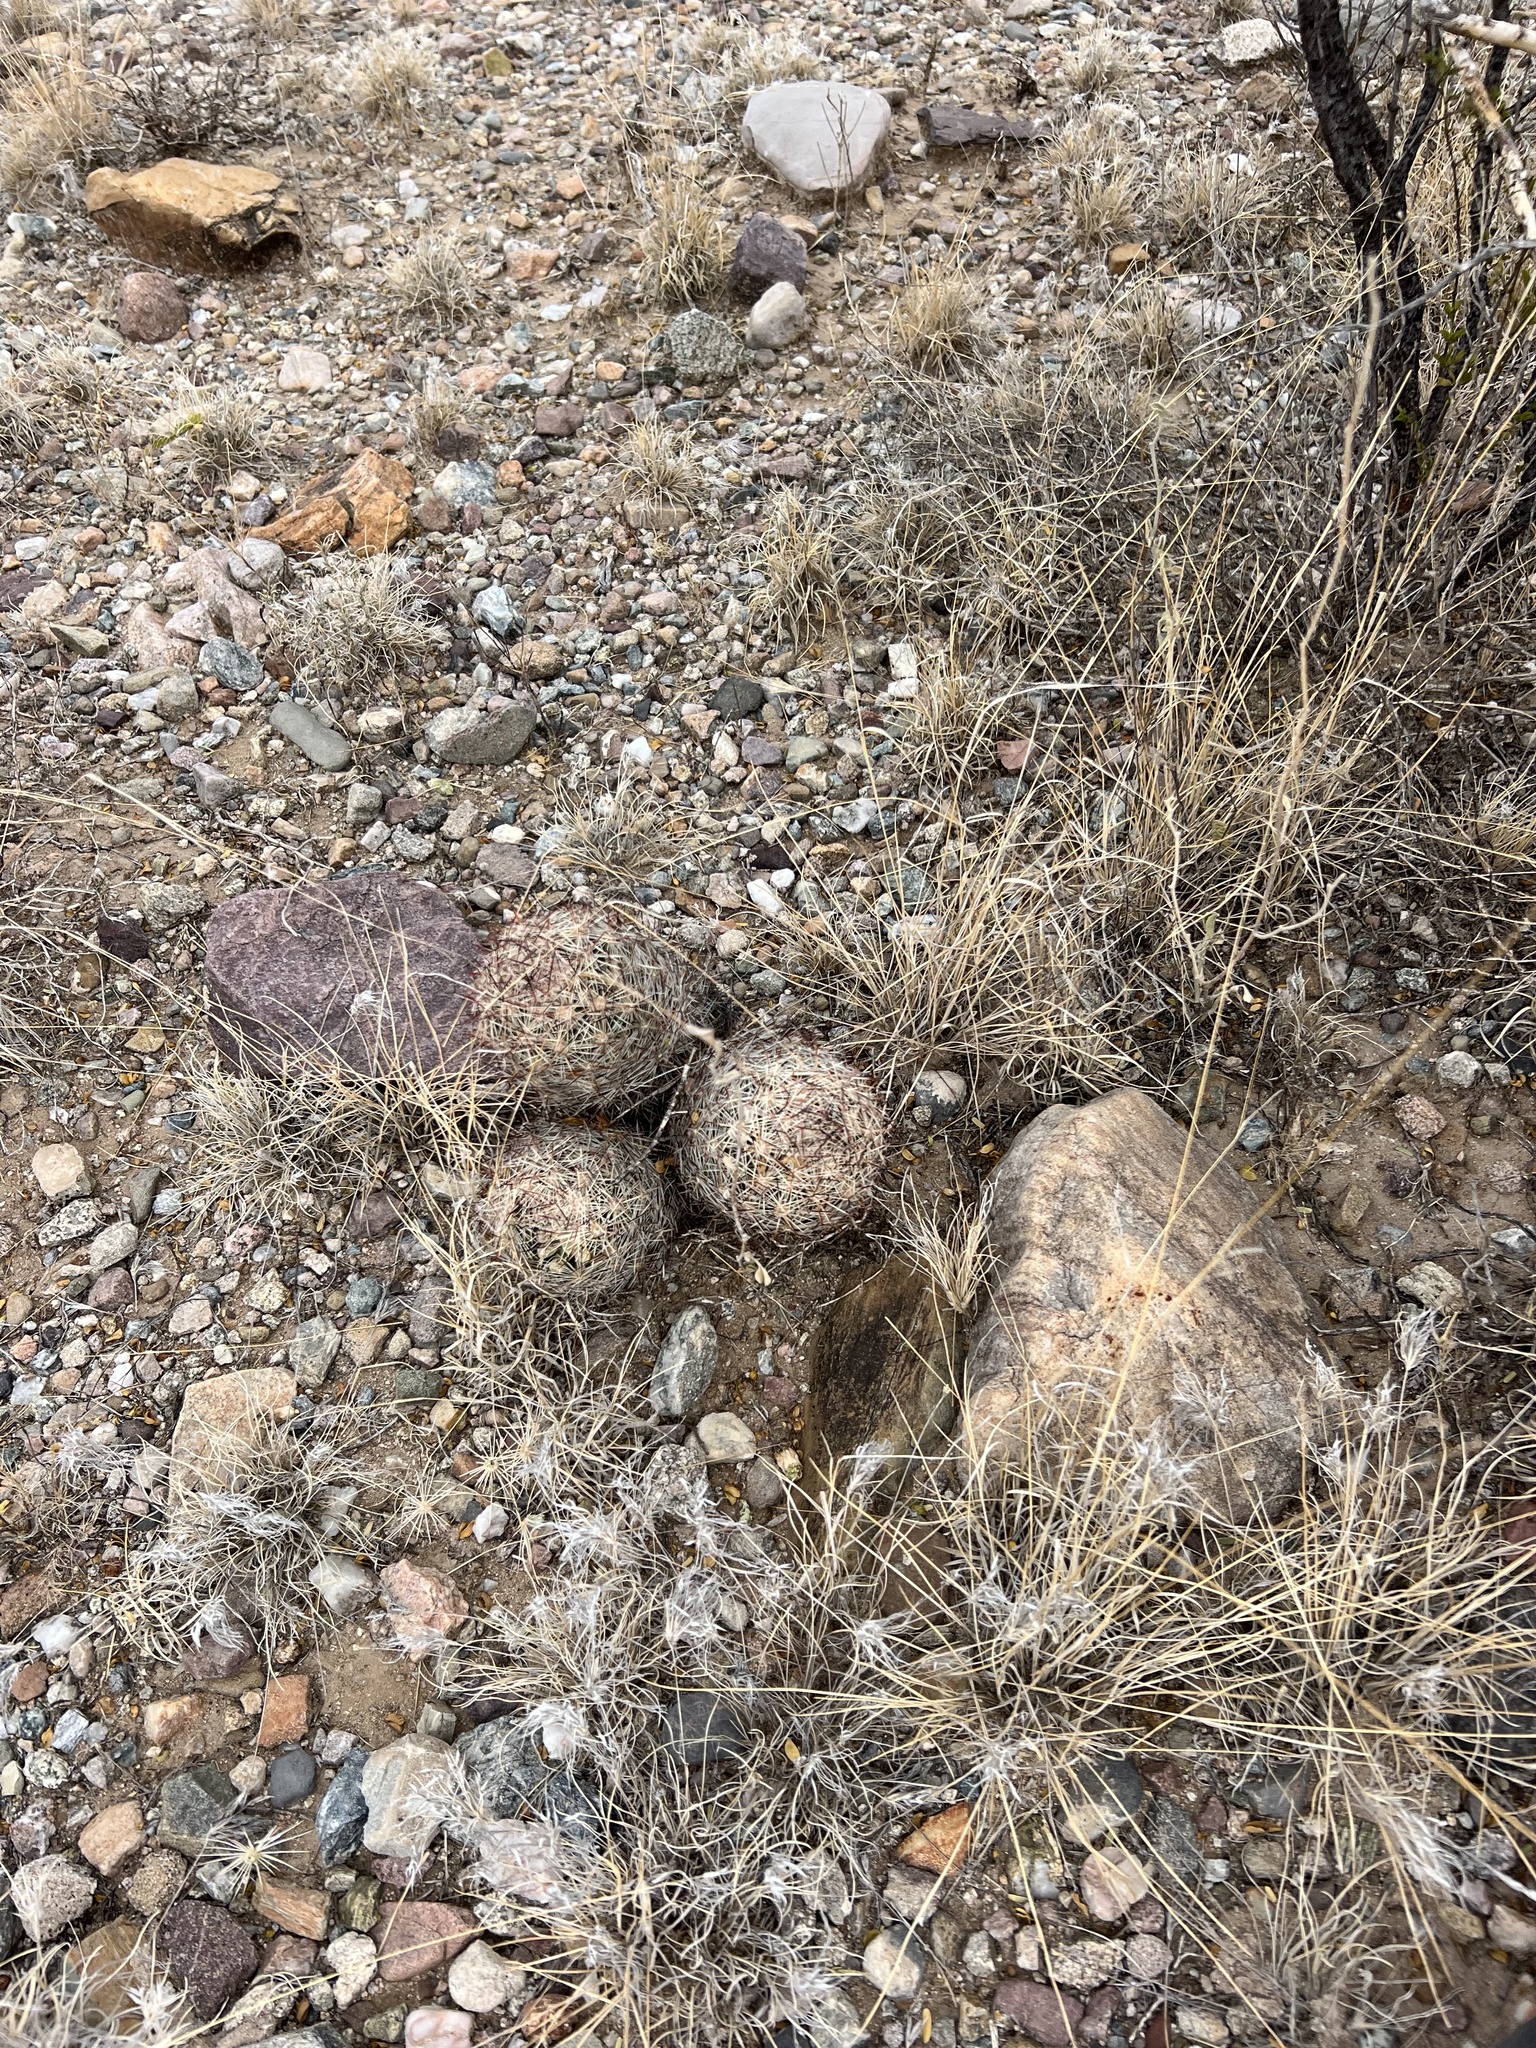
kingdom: Plantae
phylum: Tracheophyta
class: Magnoliopsida
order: Caryophyllales
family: Cactaceae
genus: Pelecyphora
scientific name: Pelecyphora vivipara
